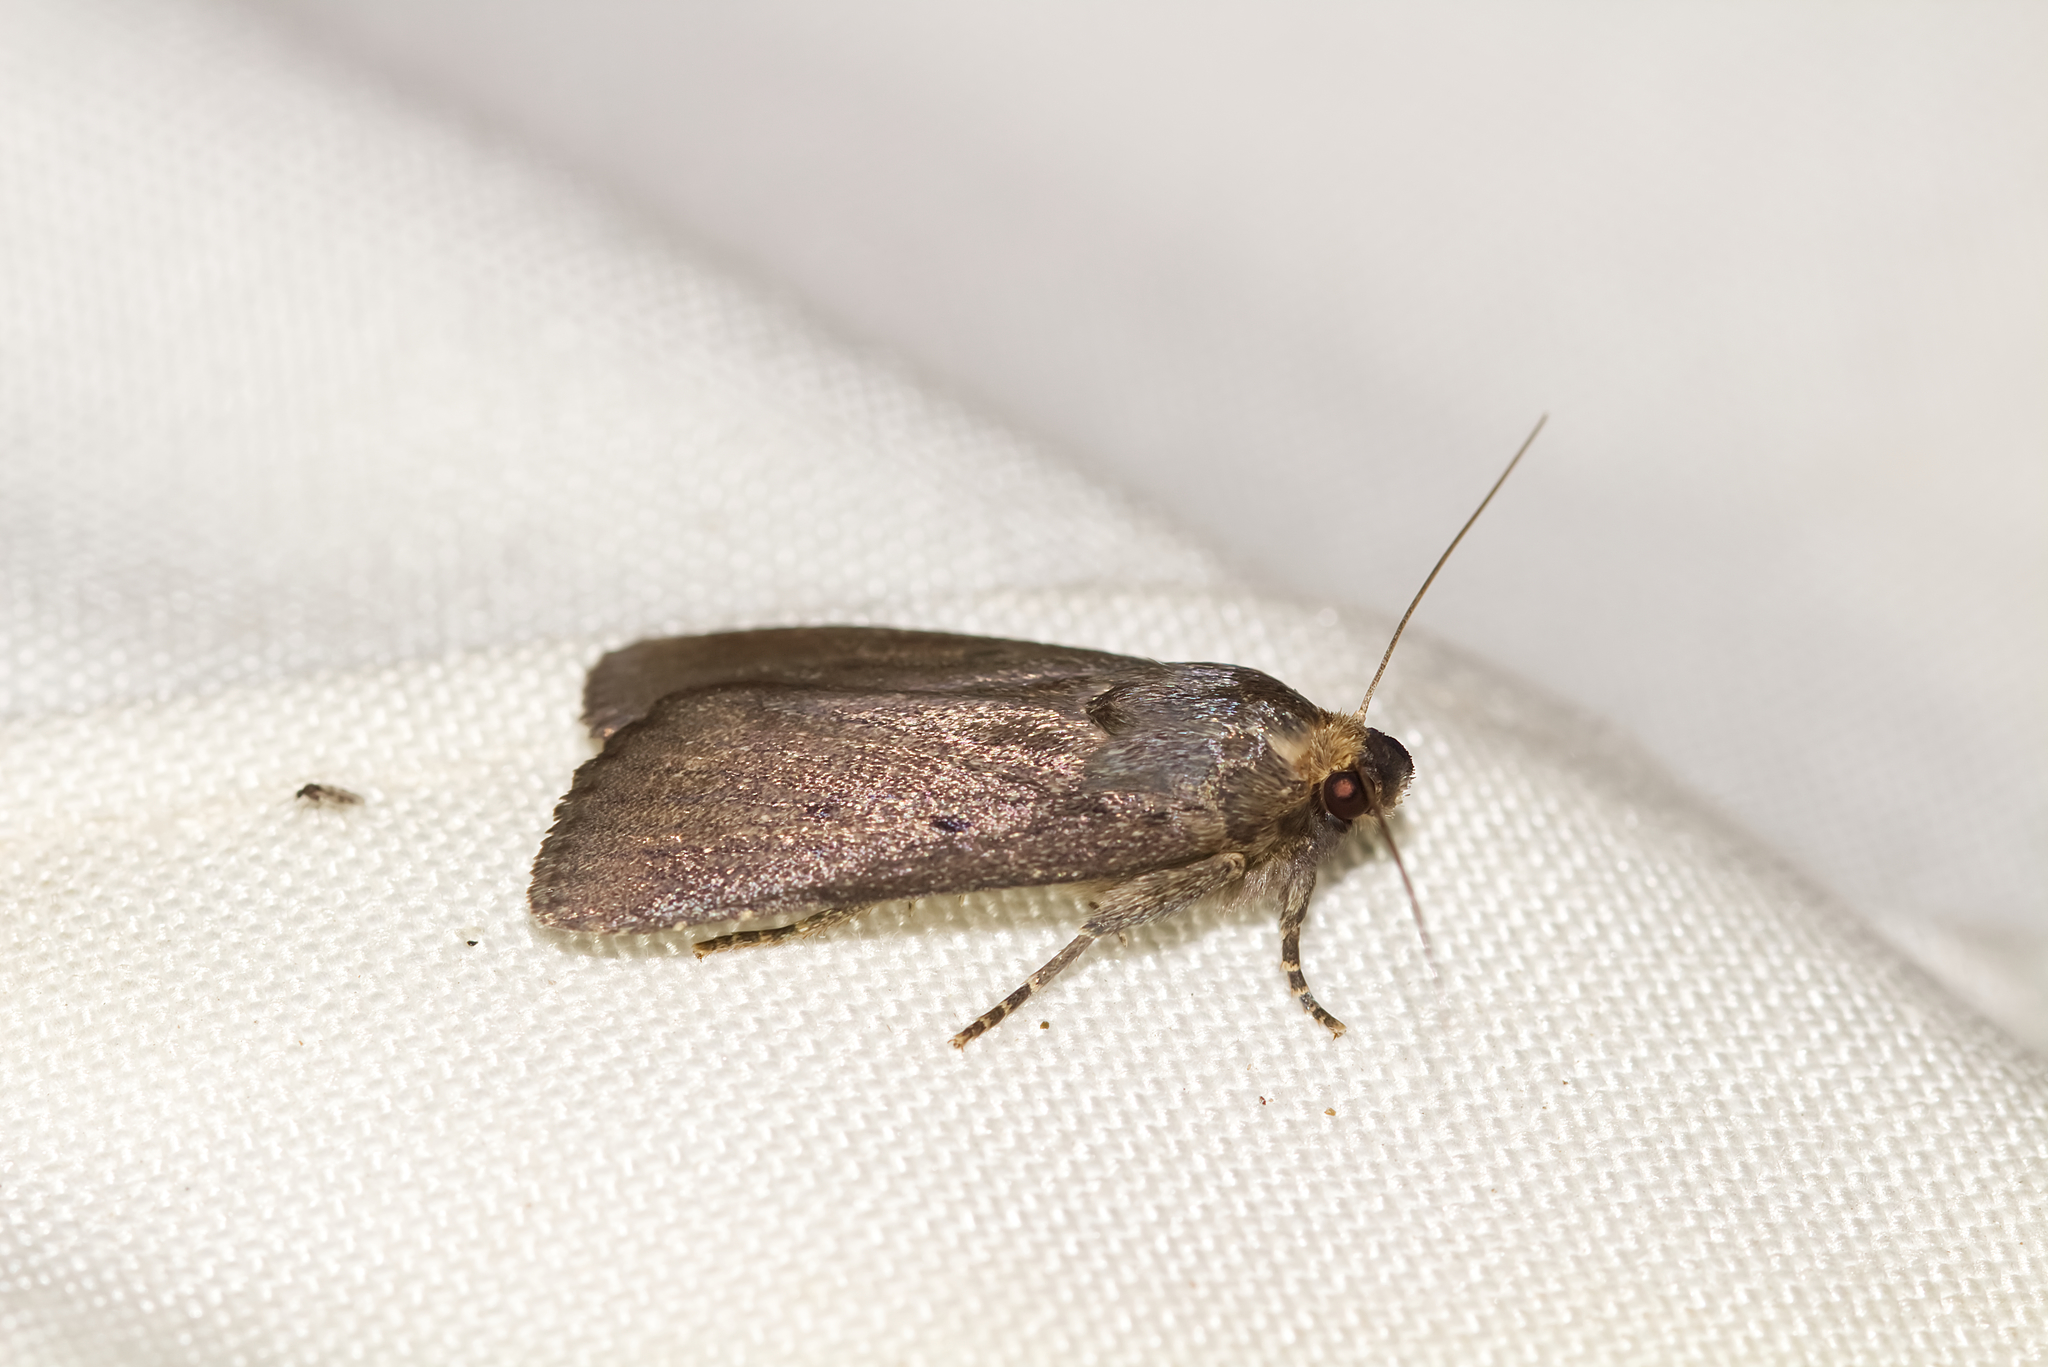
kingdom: Animalia
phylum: Arthropoda
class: Insecta
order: Lepidoptera
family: Noctuidae
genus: Amphipyra
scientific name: Amphipyra tragopoginis
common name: Mouse moth
